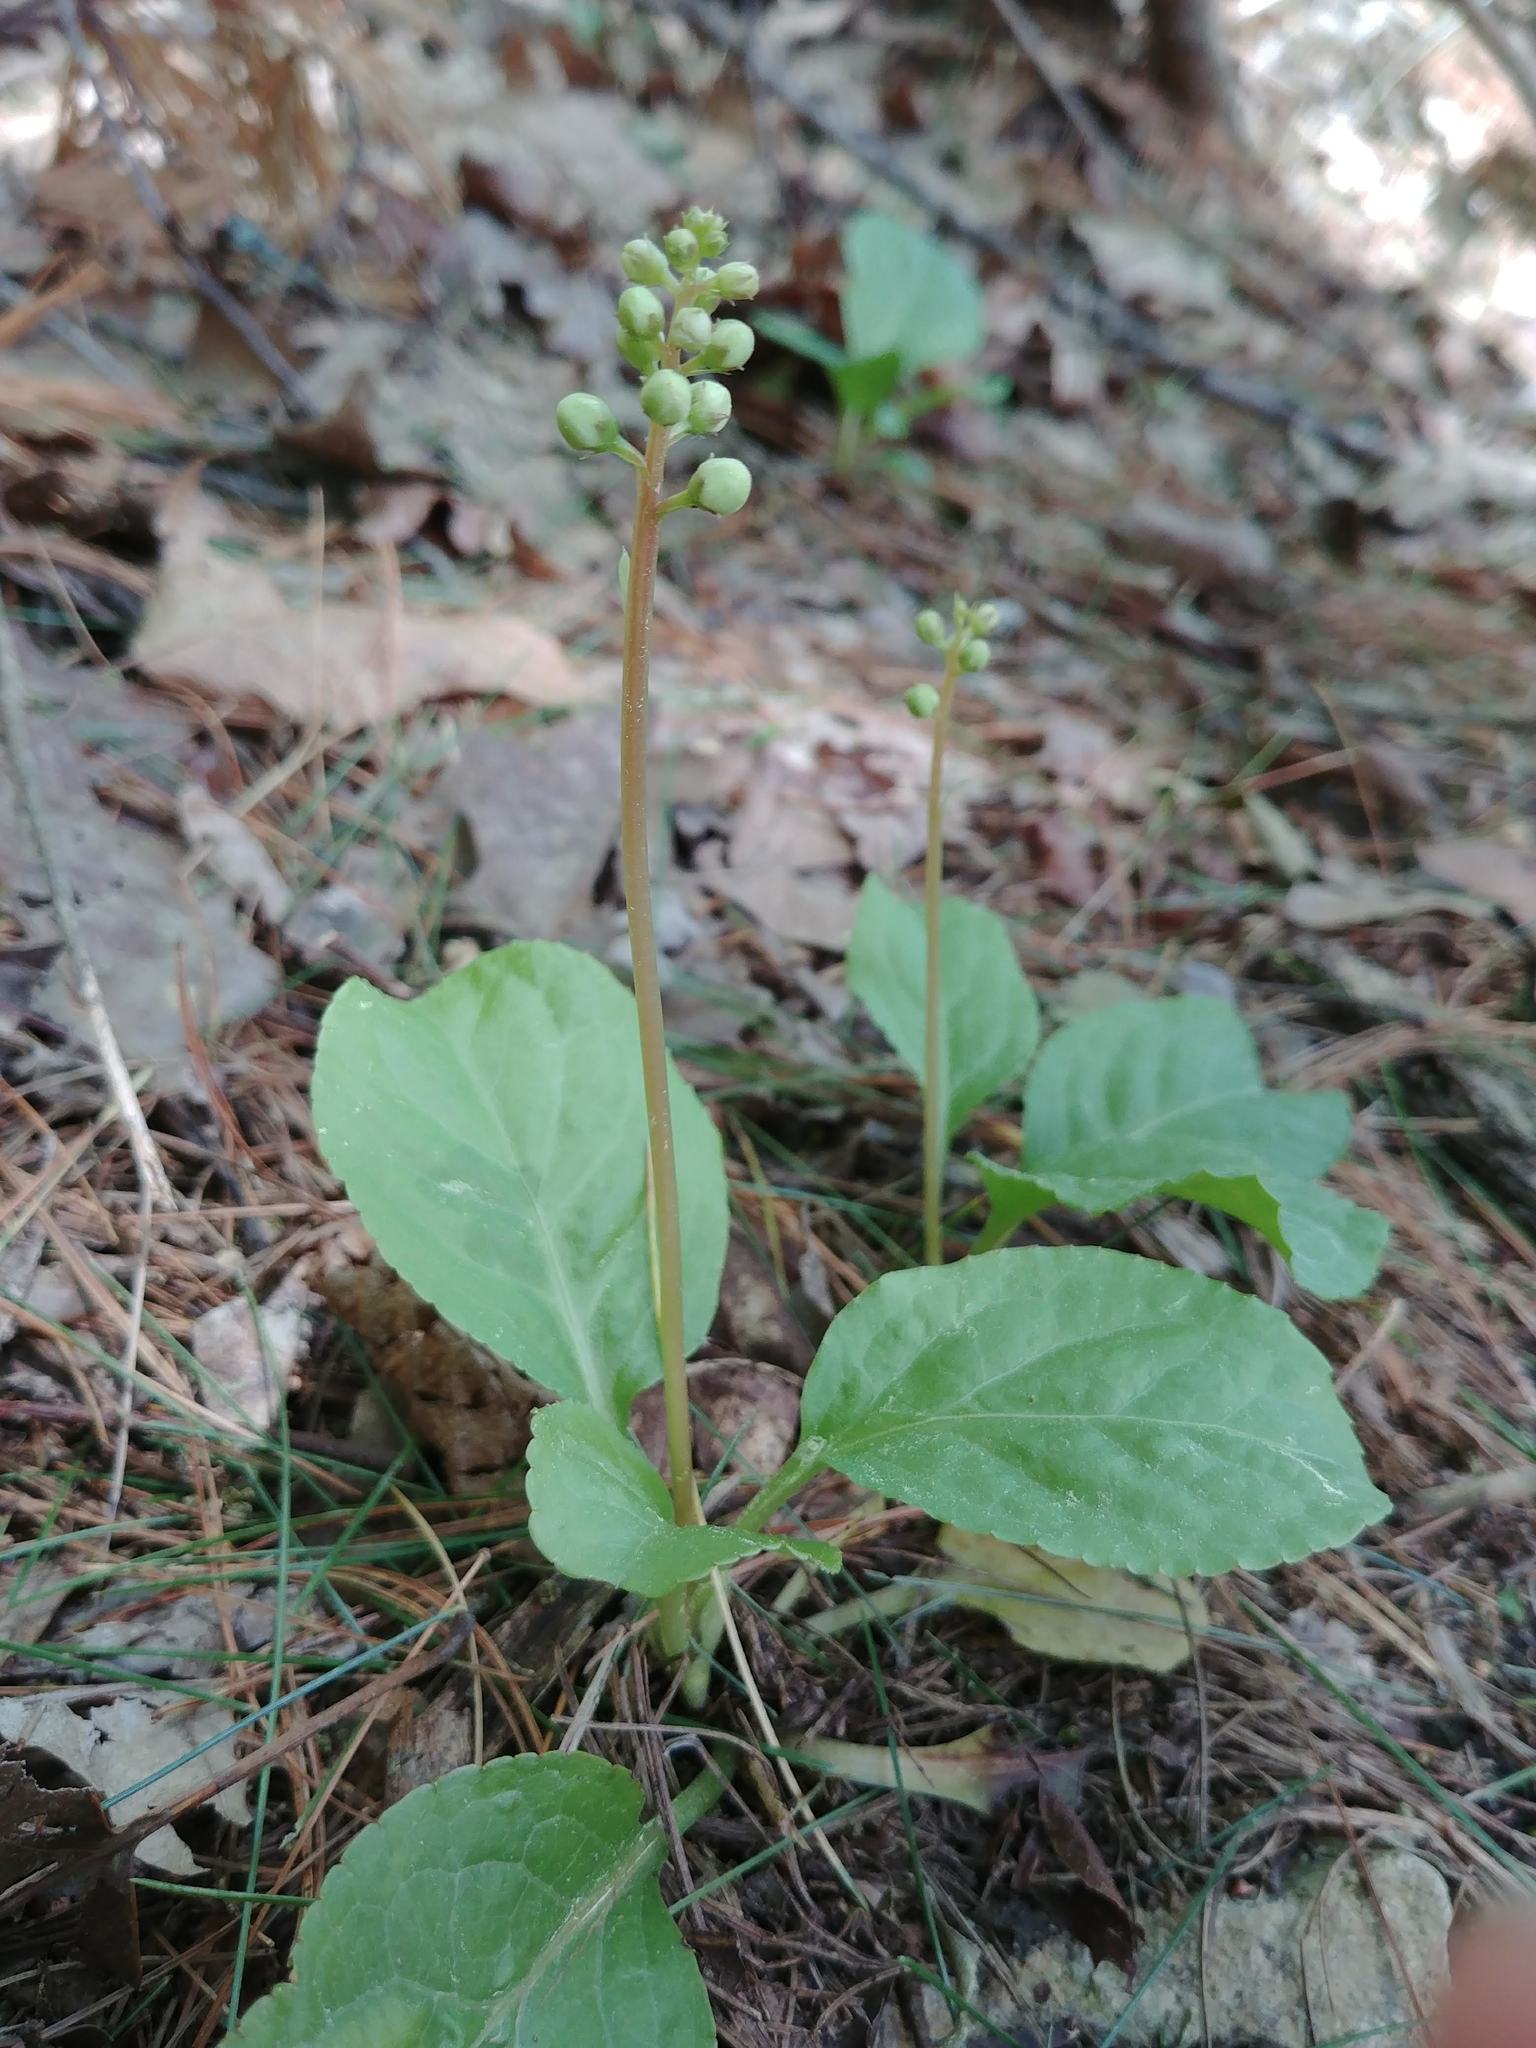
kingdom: Plantae
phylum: Tracheophyta
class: Magnoliopsida
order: Ericales
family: Ericaceae
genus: Pyrola
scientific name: Pyrola elliptica
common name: Shinleaf
